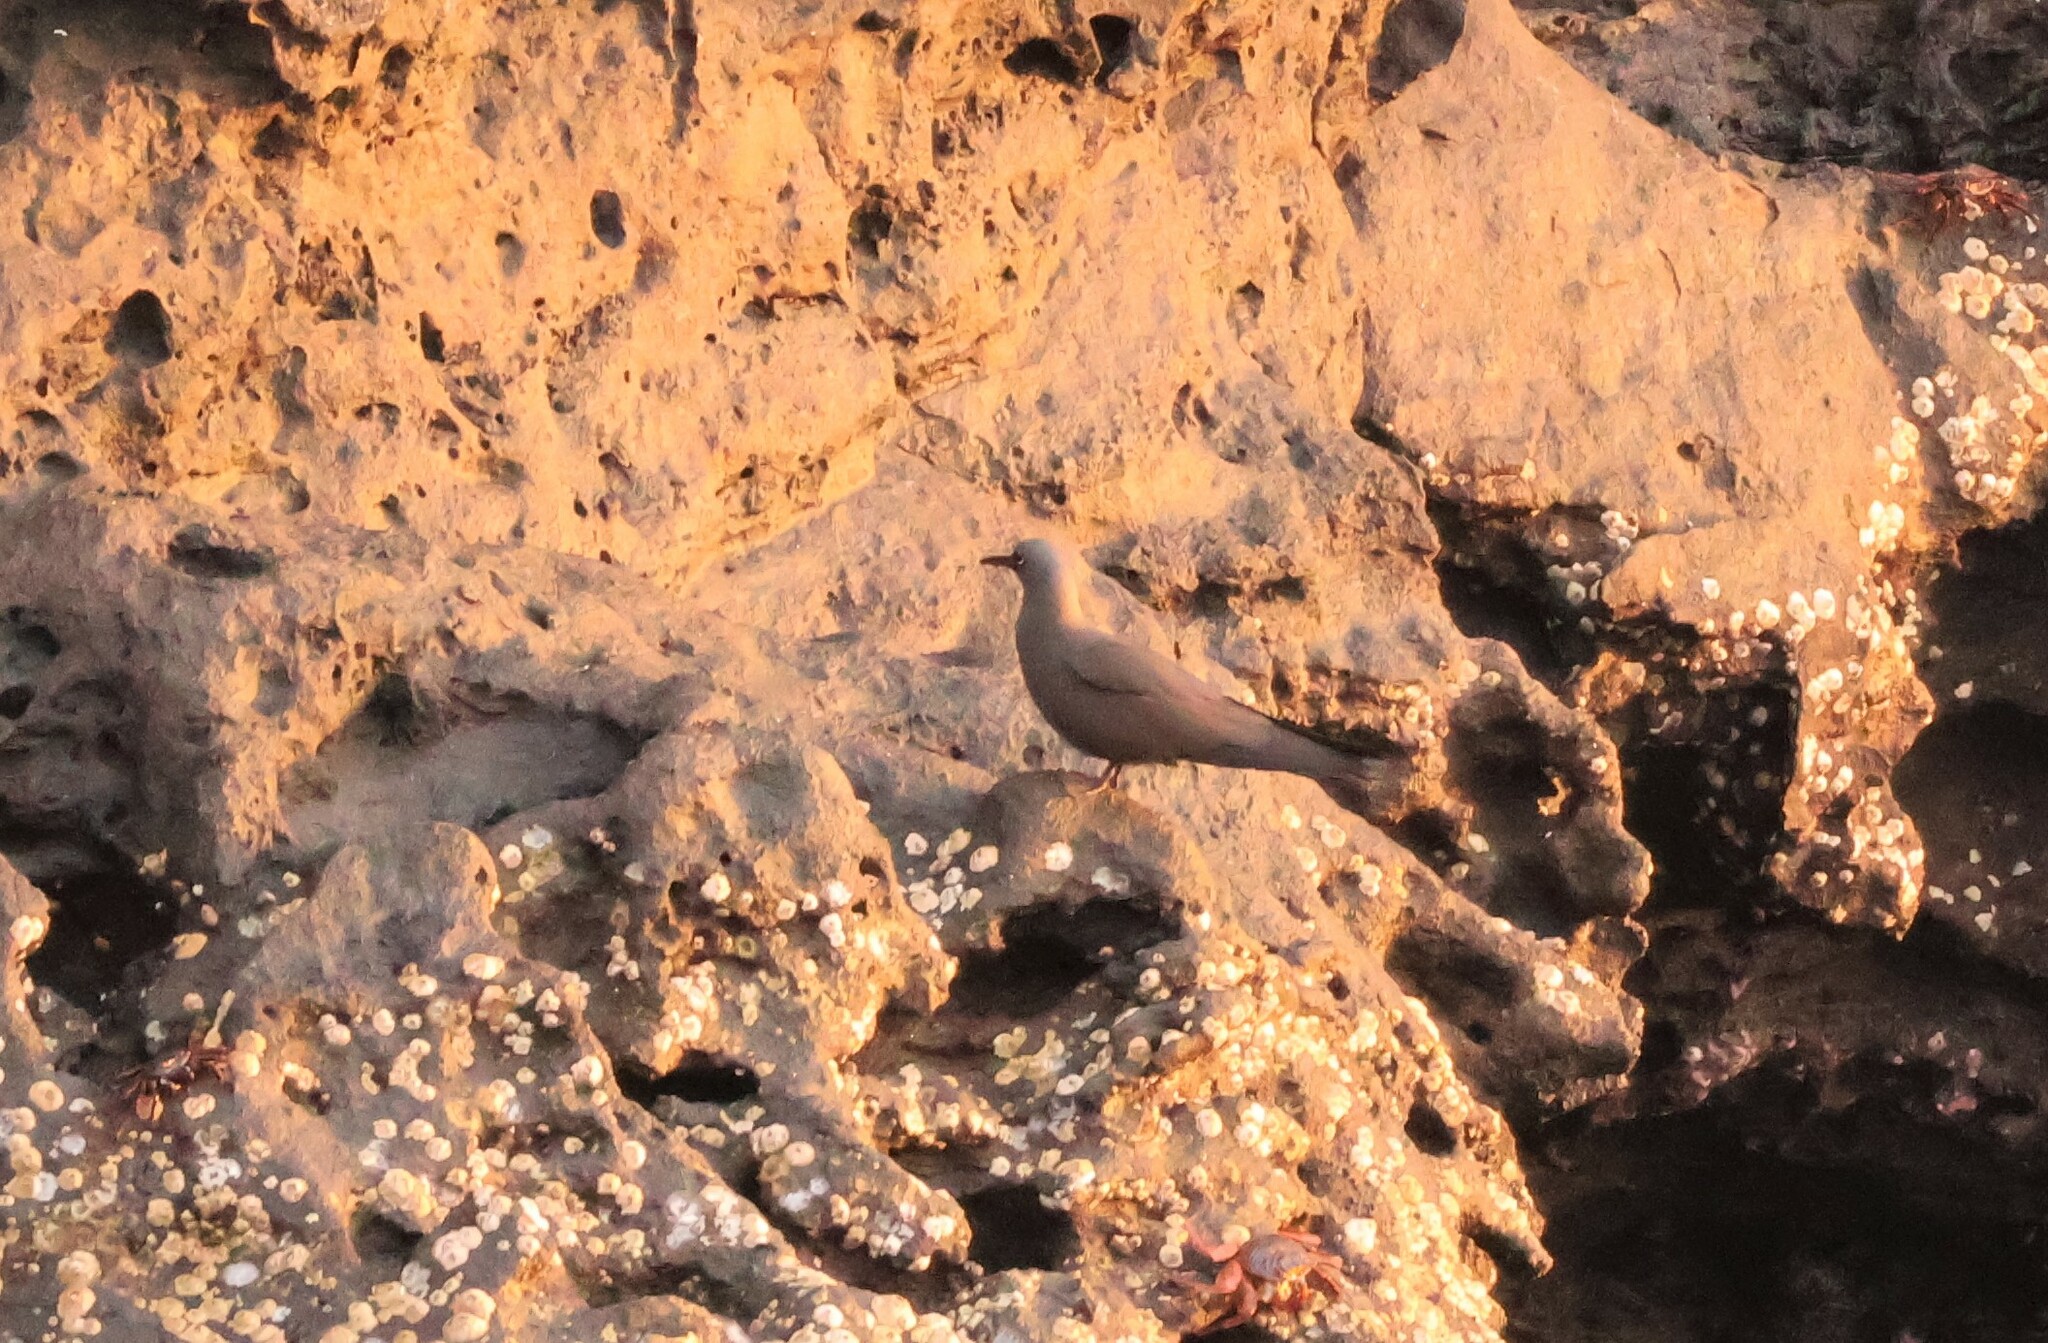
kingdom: Animalia
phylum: Chordata
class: Aves
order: Charadriiformes
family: Laridae
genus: Anous
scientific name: Anous stolidus
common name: Brown noddy
